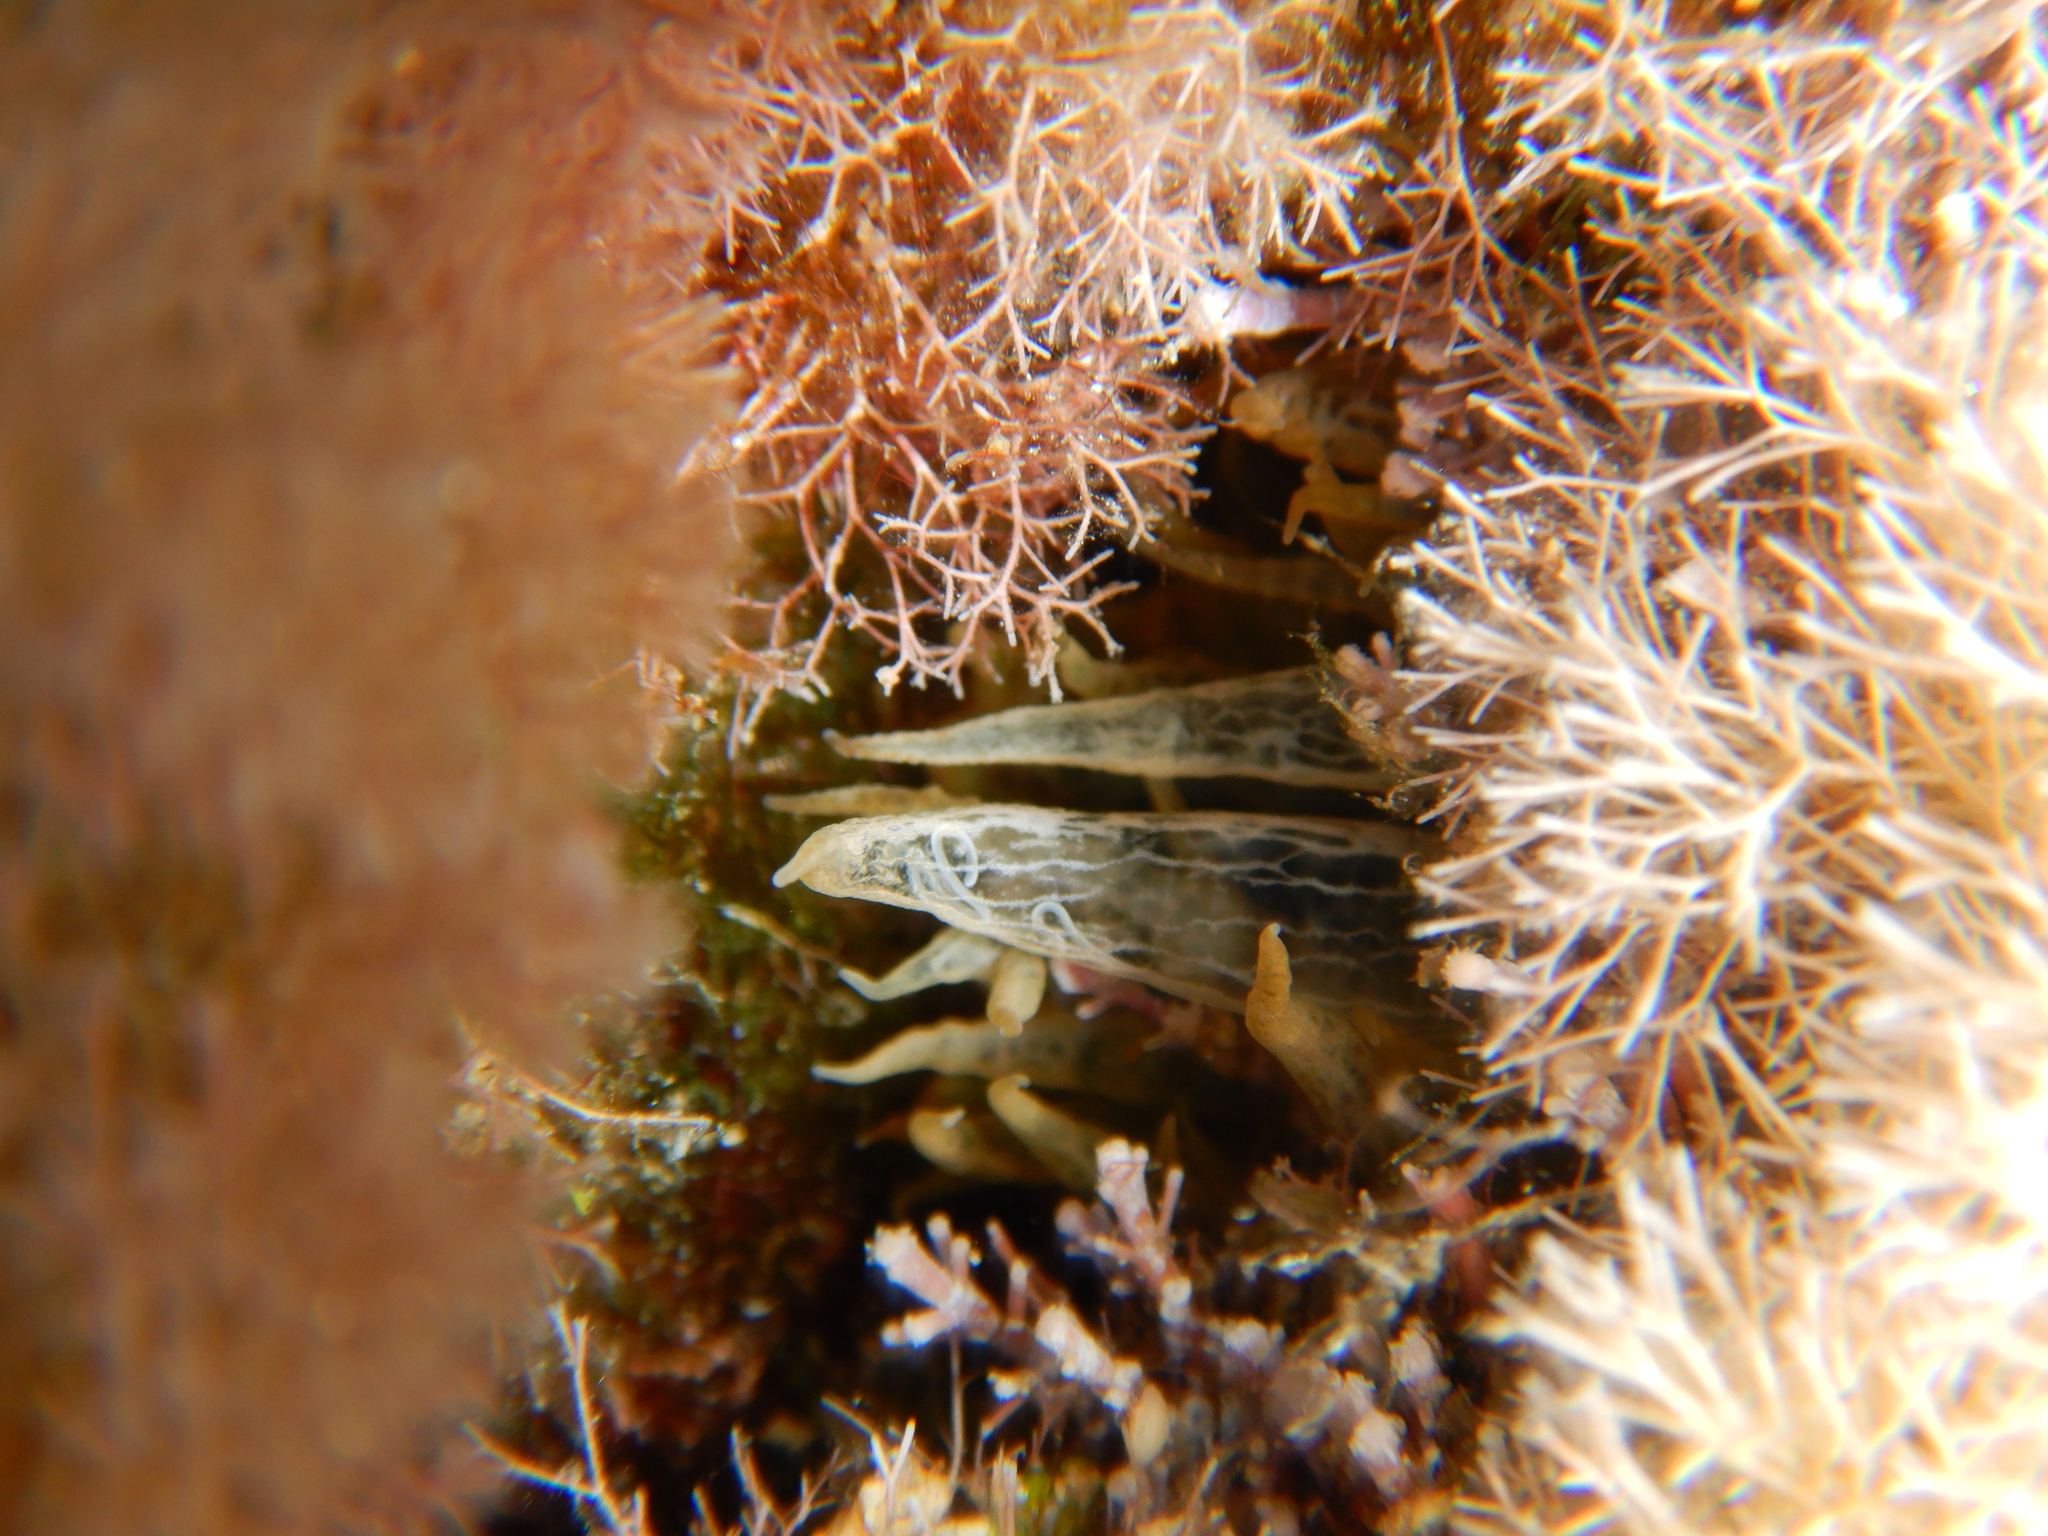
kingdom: Animalia
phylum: Cnidaria
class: Anthozoa
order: Actiniaria
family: Aiptasiidae
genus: Aiptasia
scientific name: Aiptasia mutabilis
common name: Trumpet anemone
